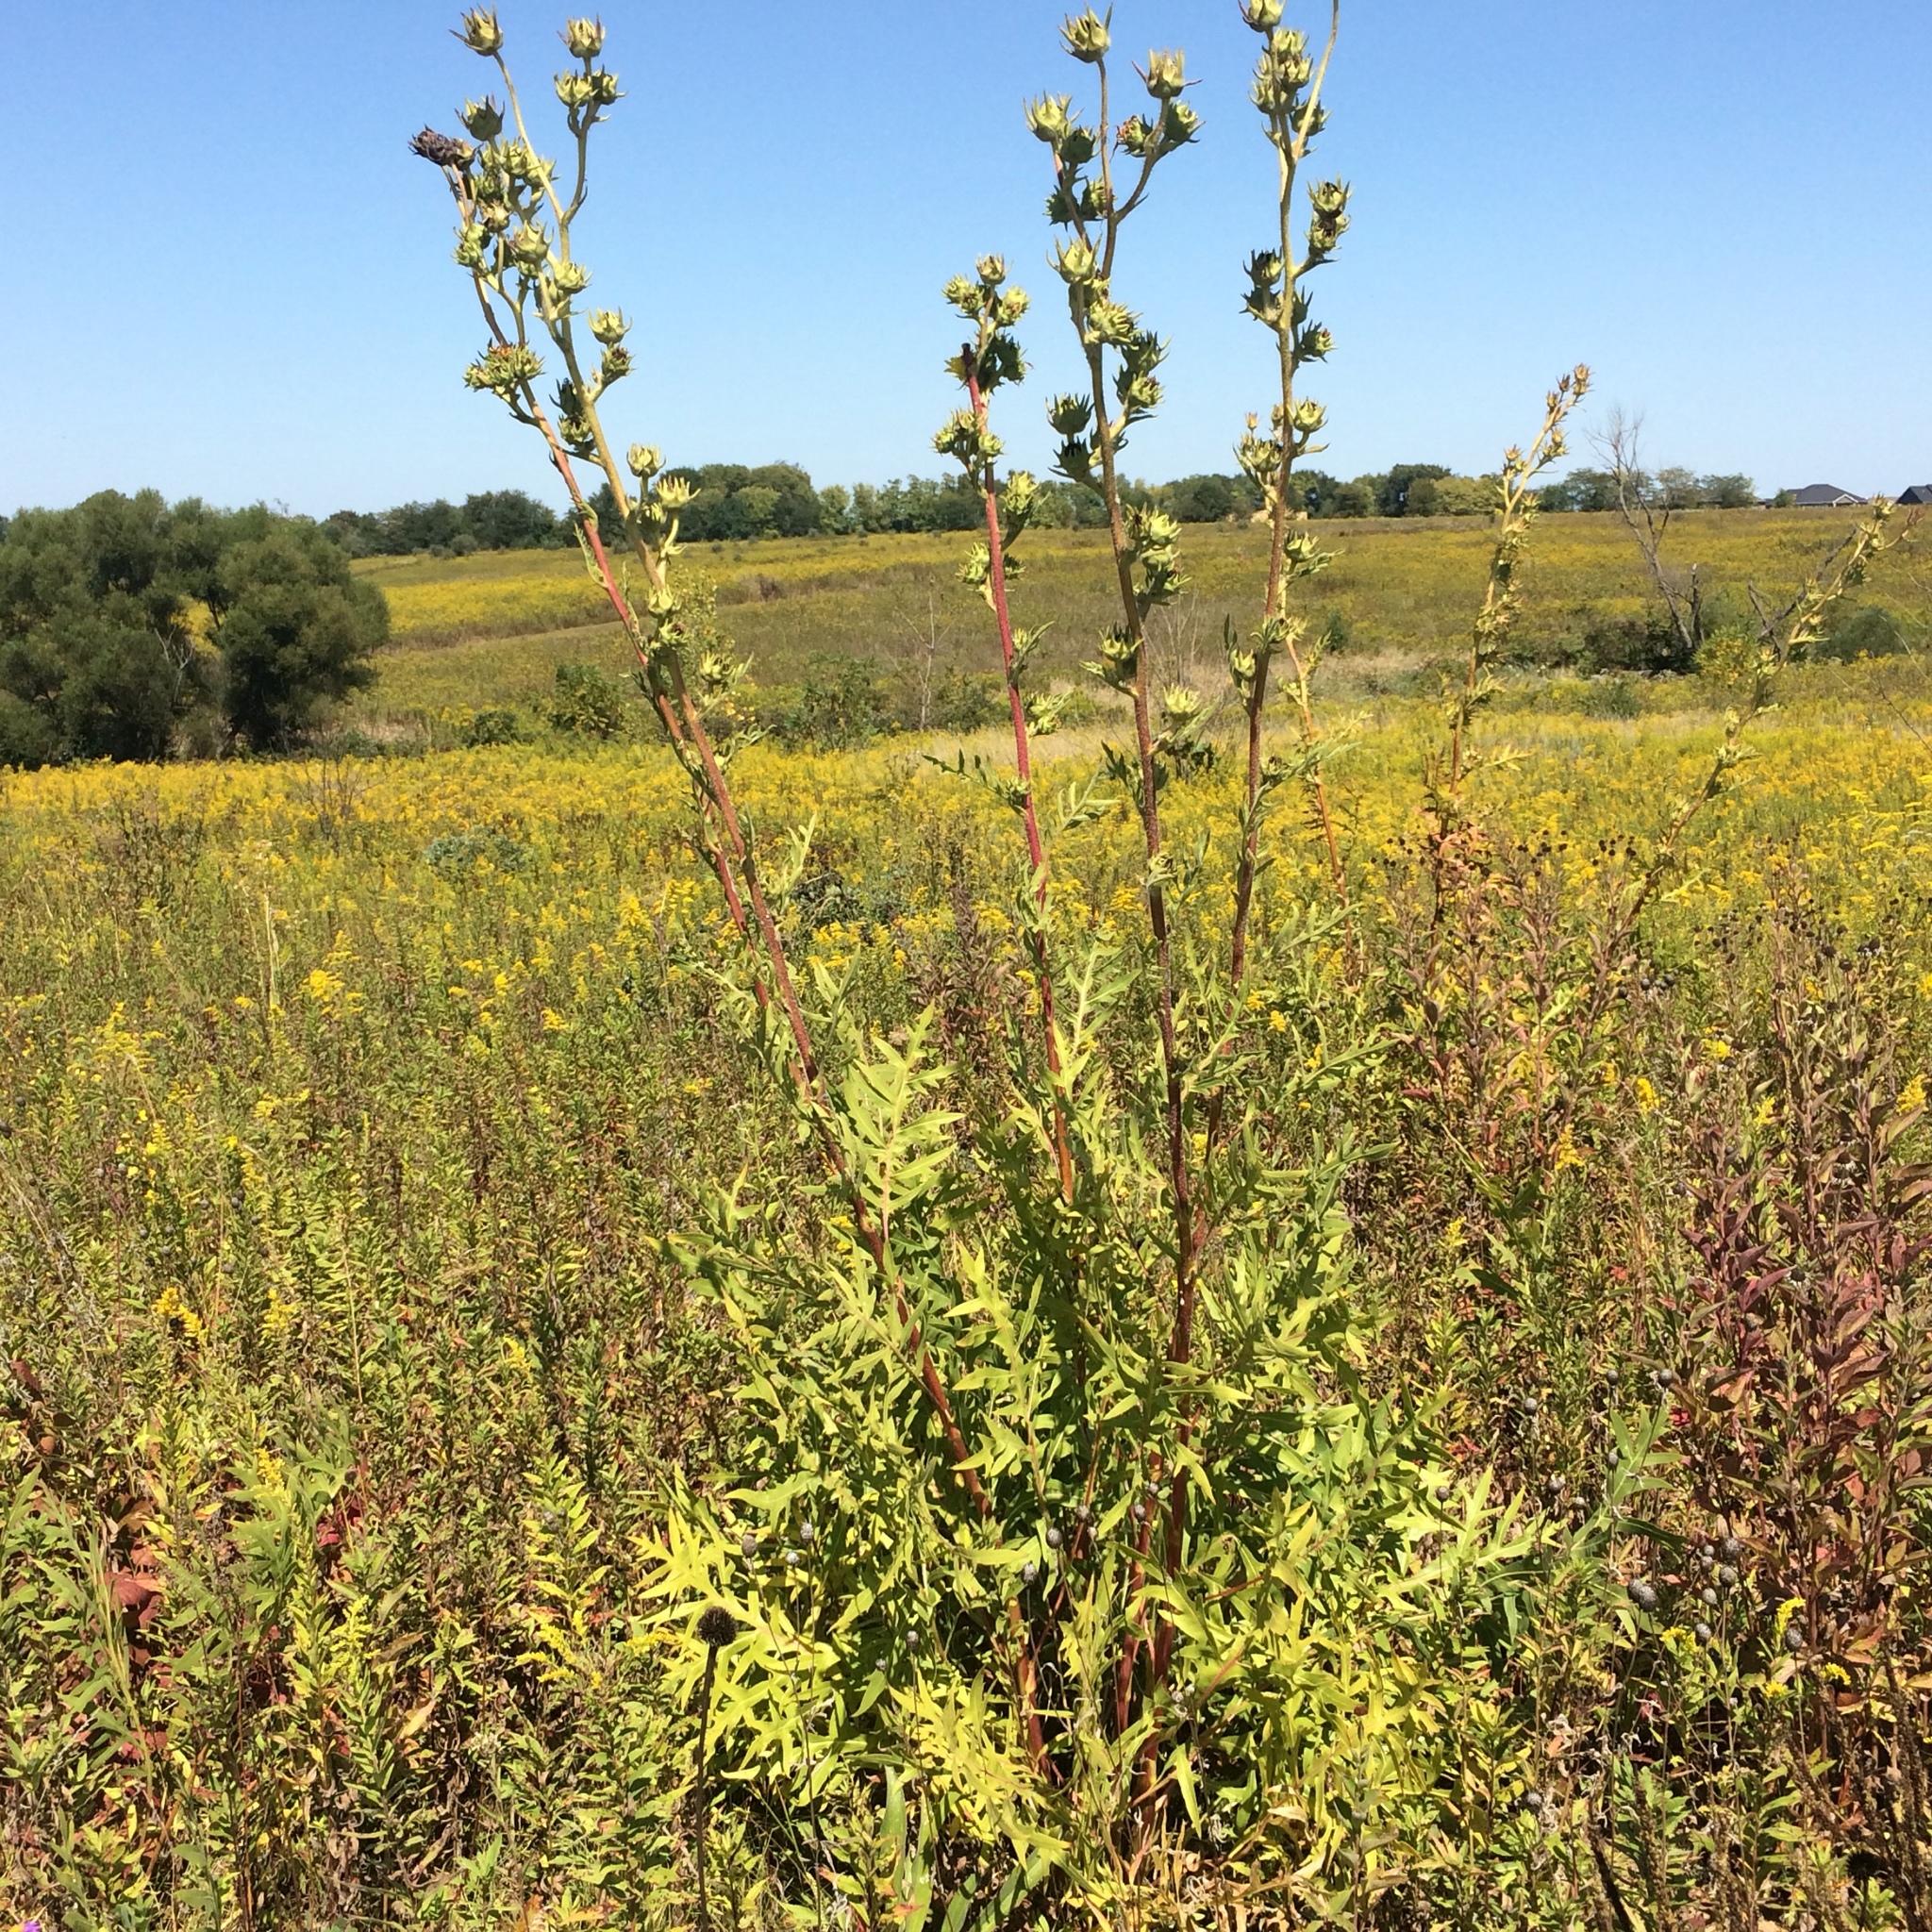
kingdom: Plantae
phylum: Tracheophyta
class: Magnoliopsida
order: Asterales
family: Asteraceae
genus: Silphium
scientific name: Silphium laciniatum
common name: Polarplant
